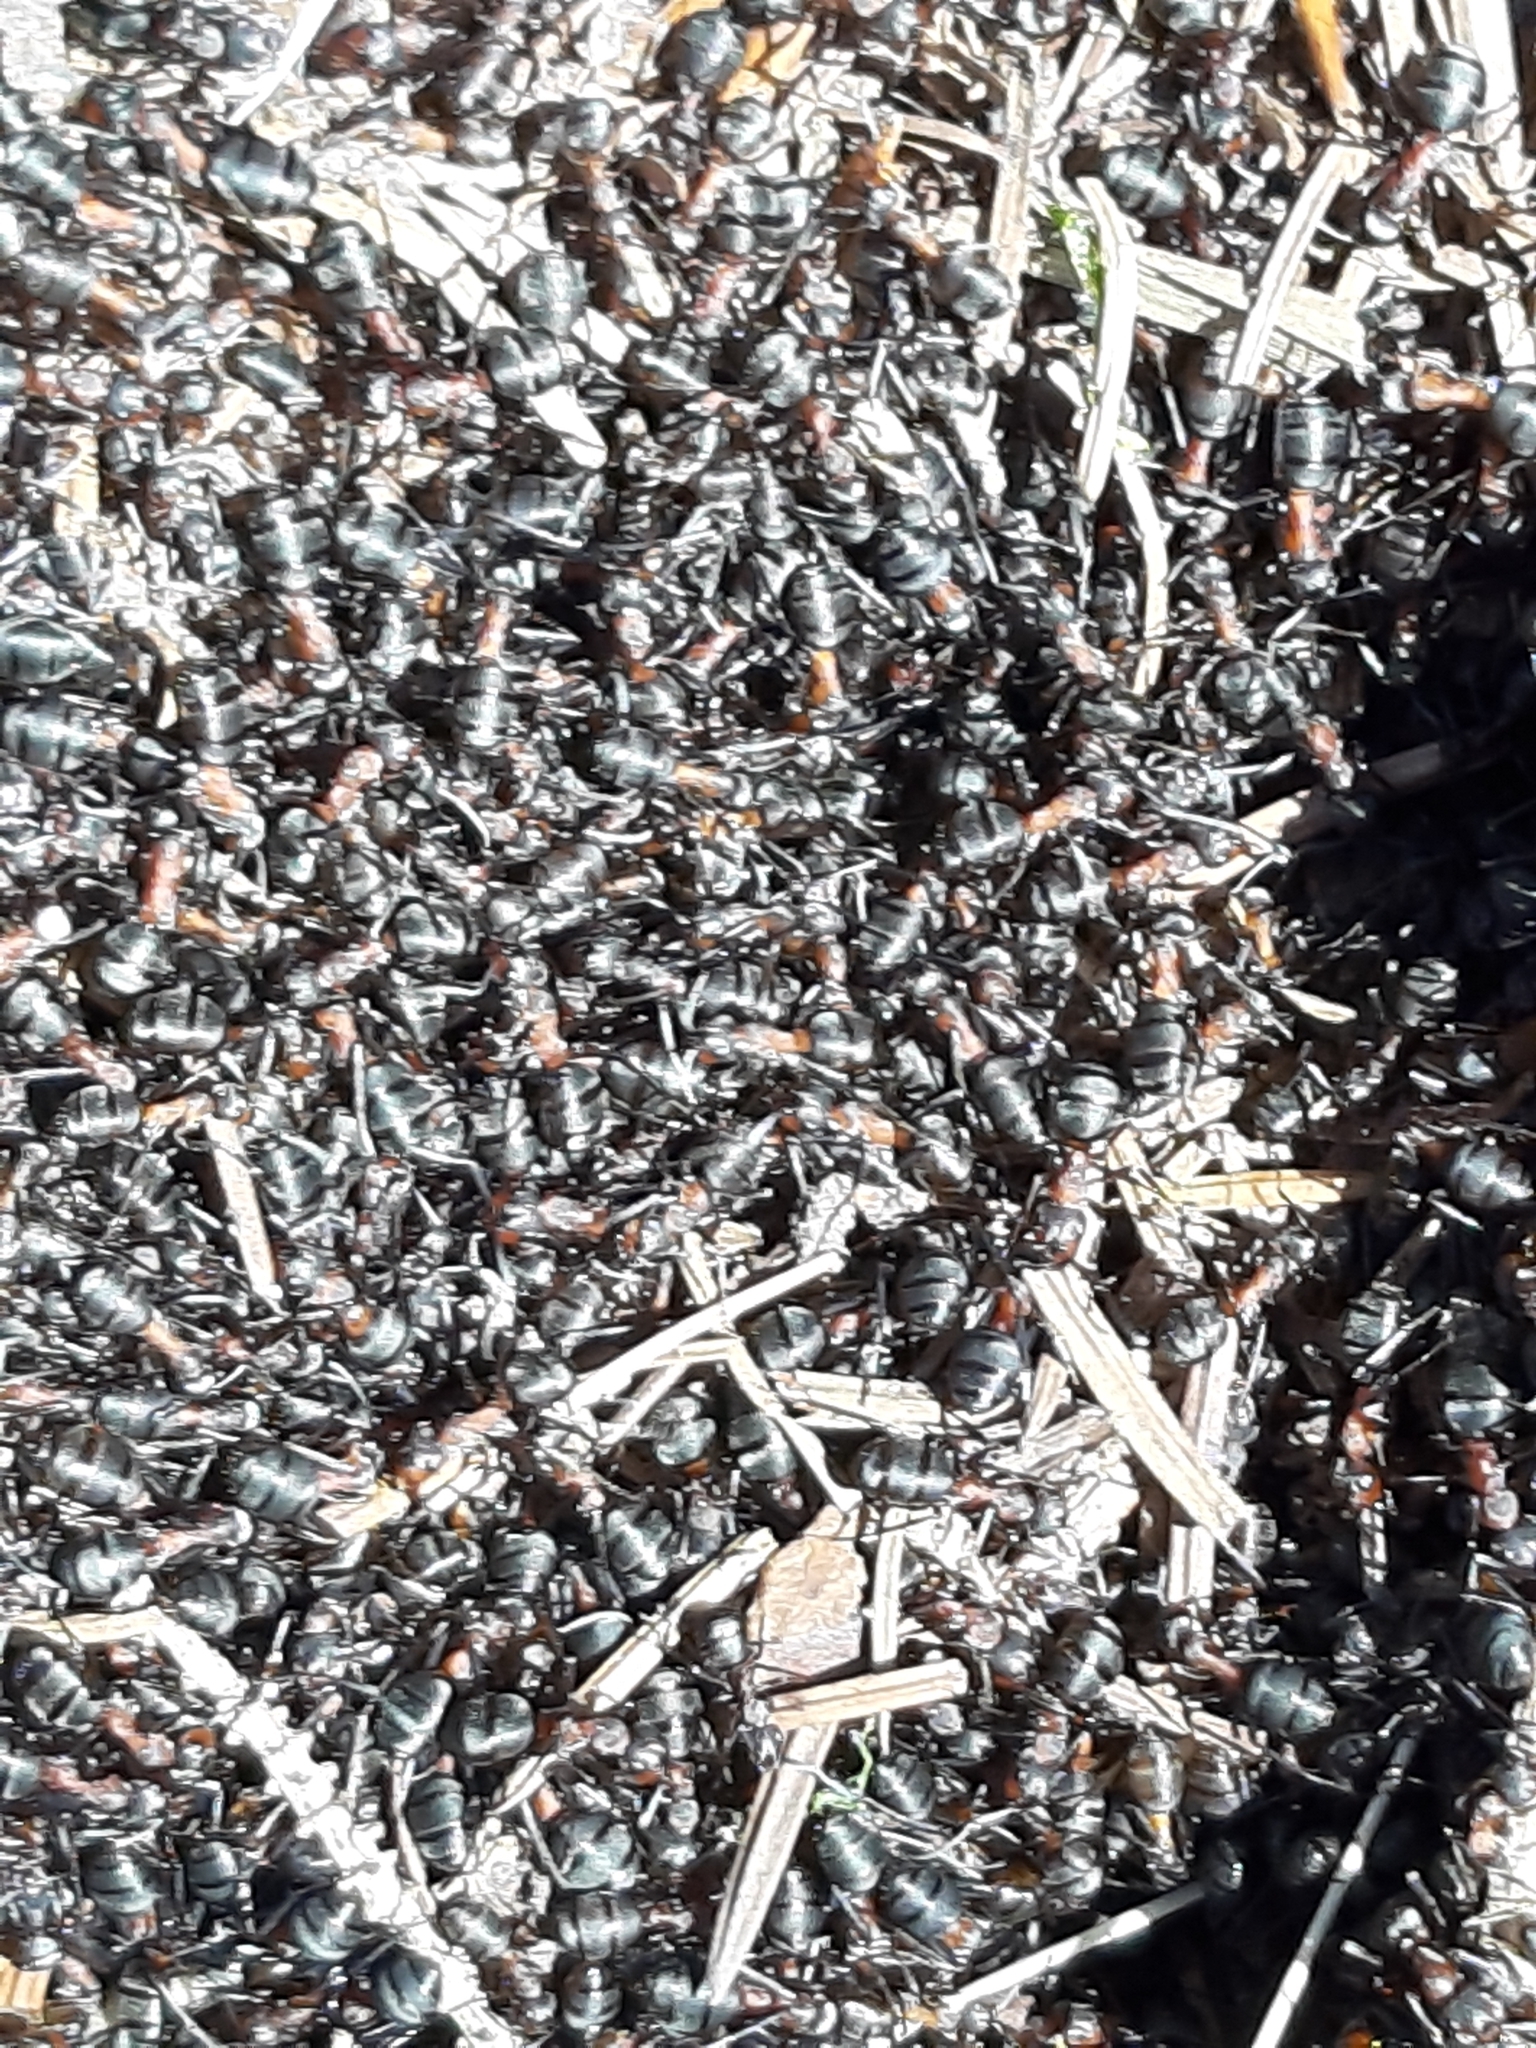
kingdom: Animalia
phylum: Arthropoda
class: Insecta
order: Hymenoptera
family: Formicidae
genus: Formica
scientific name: Formica rufa
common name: Red wood ant
